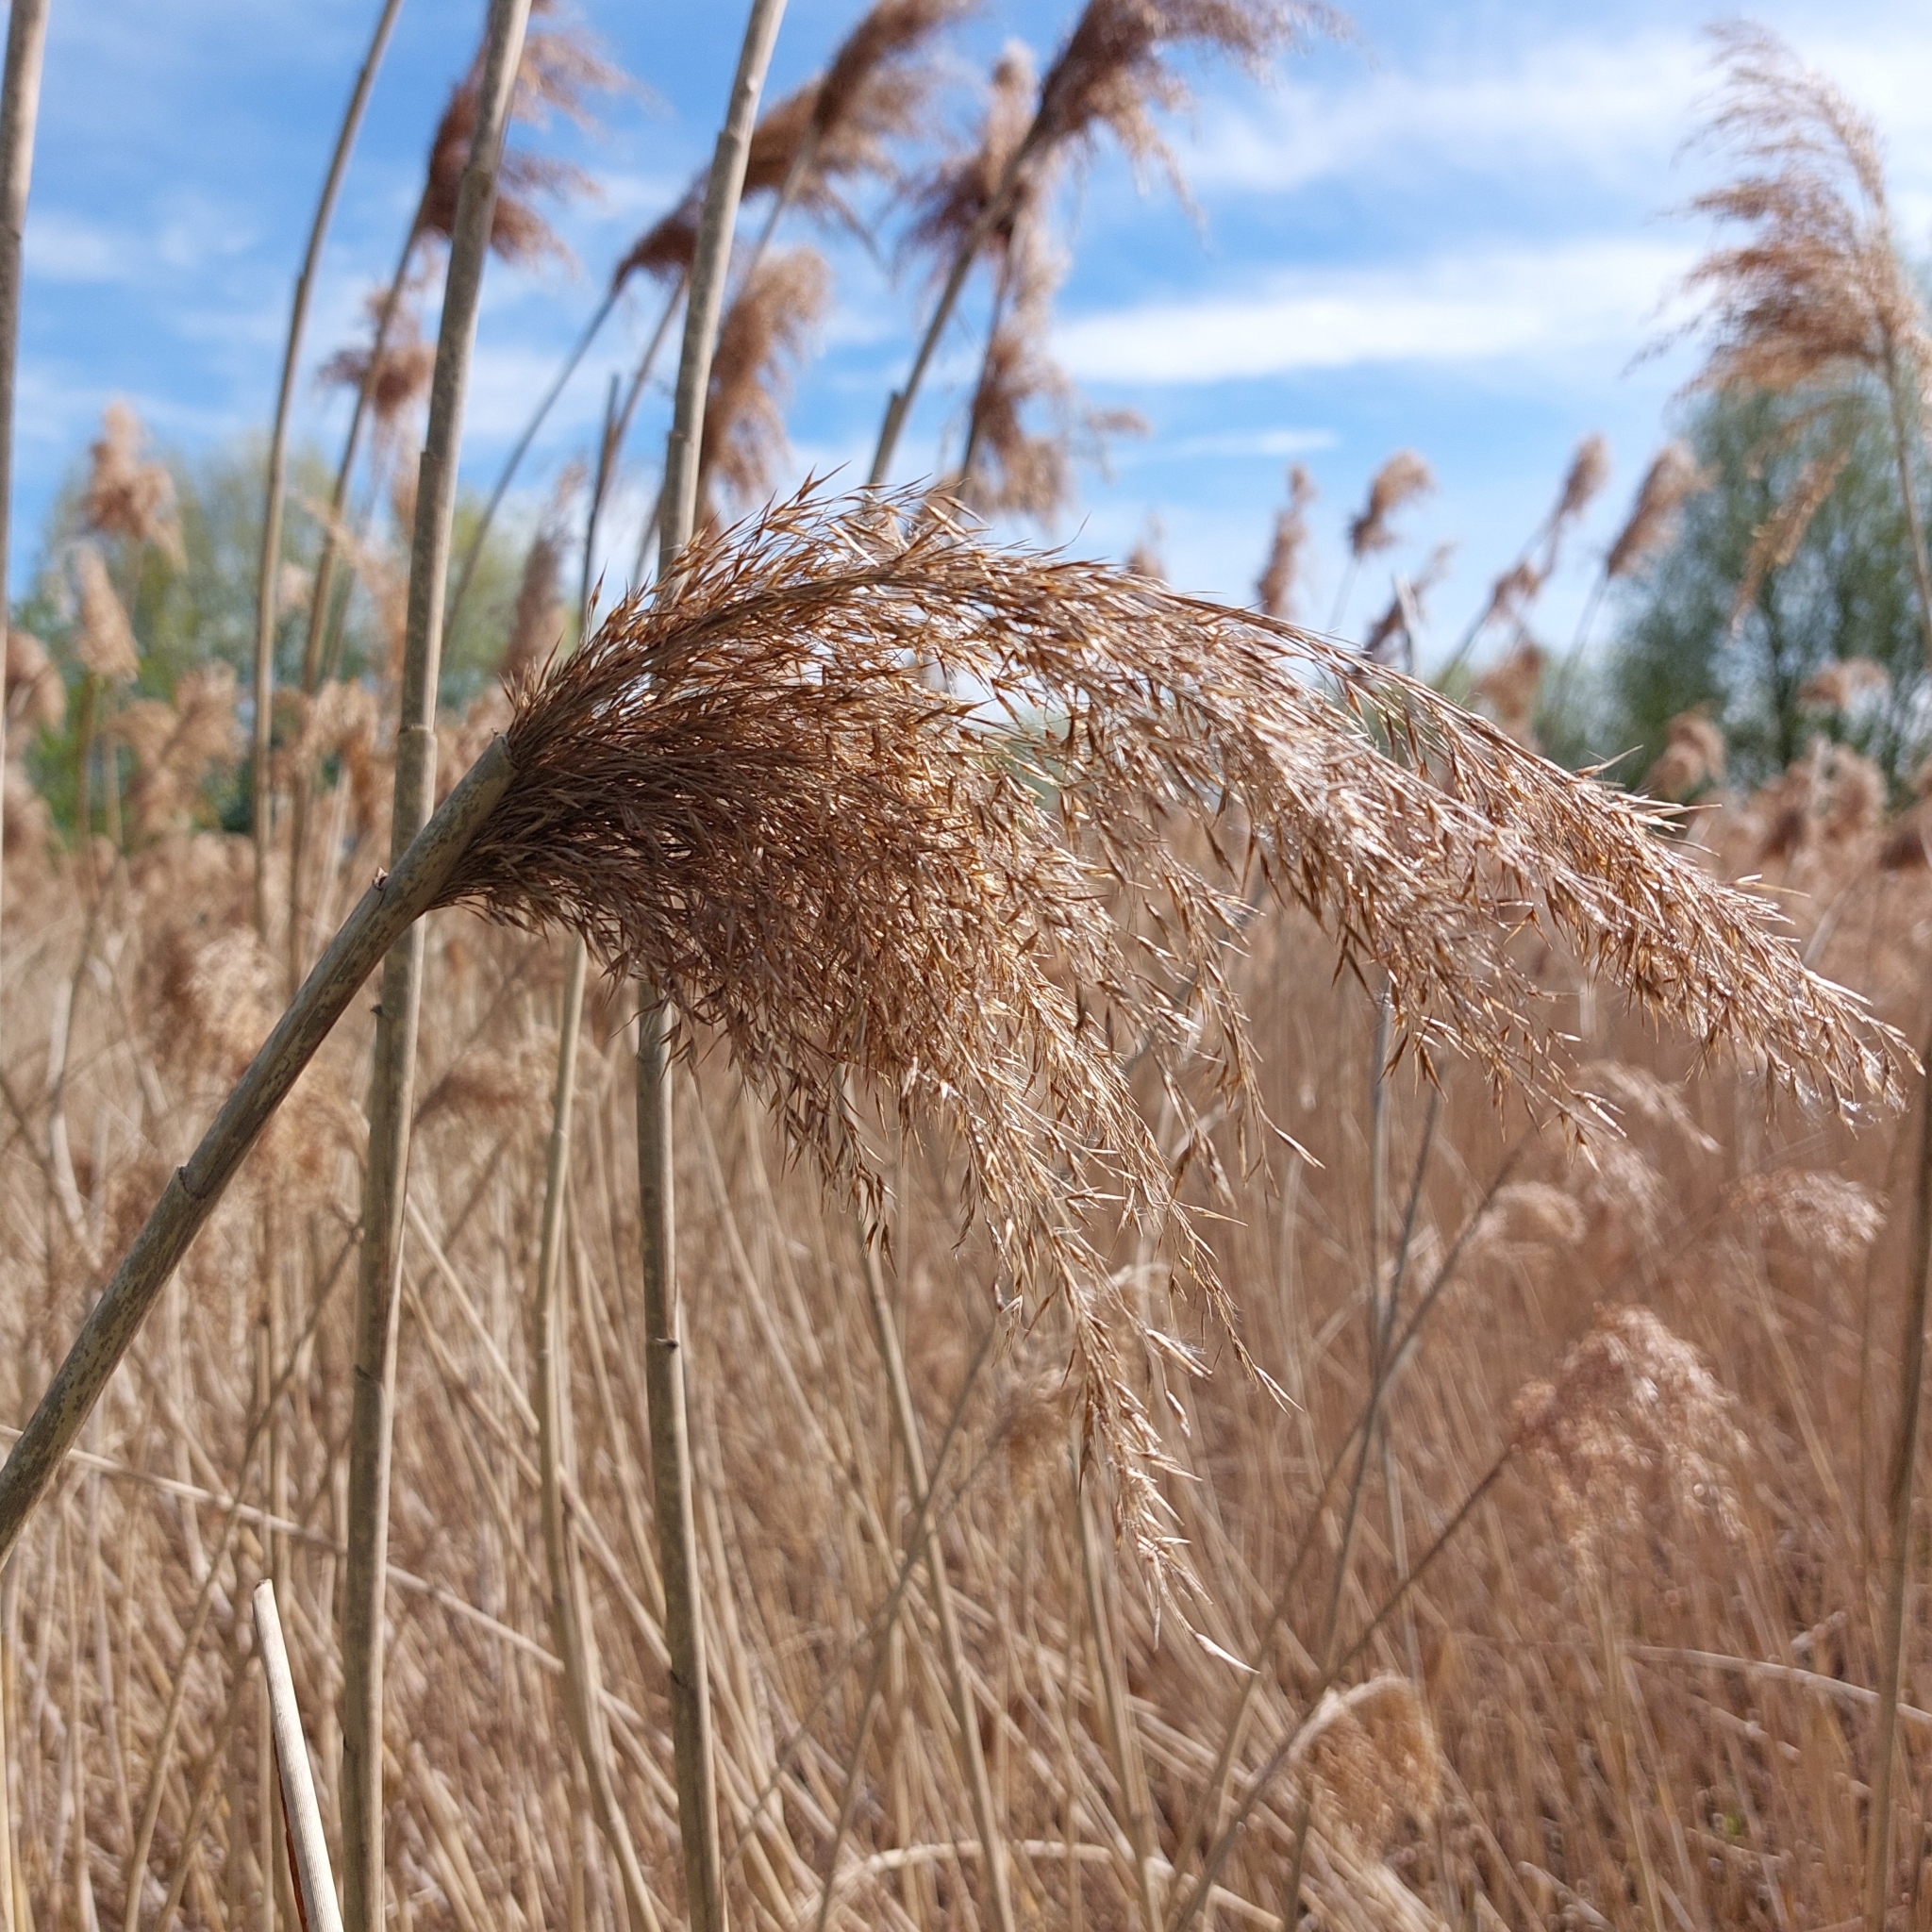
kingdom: Plantae
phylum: Tracheophyta
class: Liliopsida
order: Poales
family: Poaceae
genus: Phragmites
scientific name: Phragmites australis
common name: Common reed
